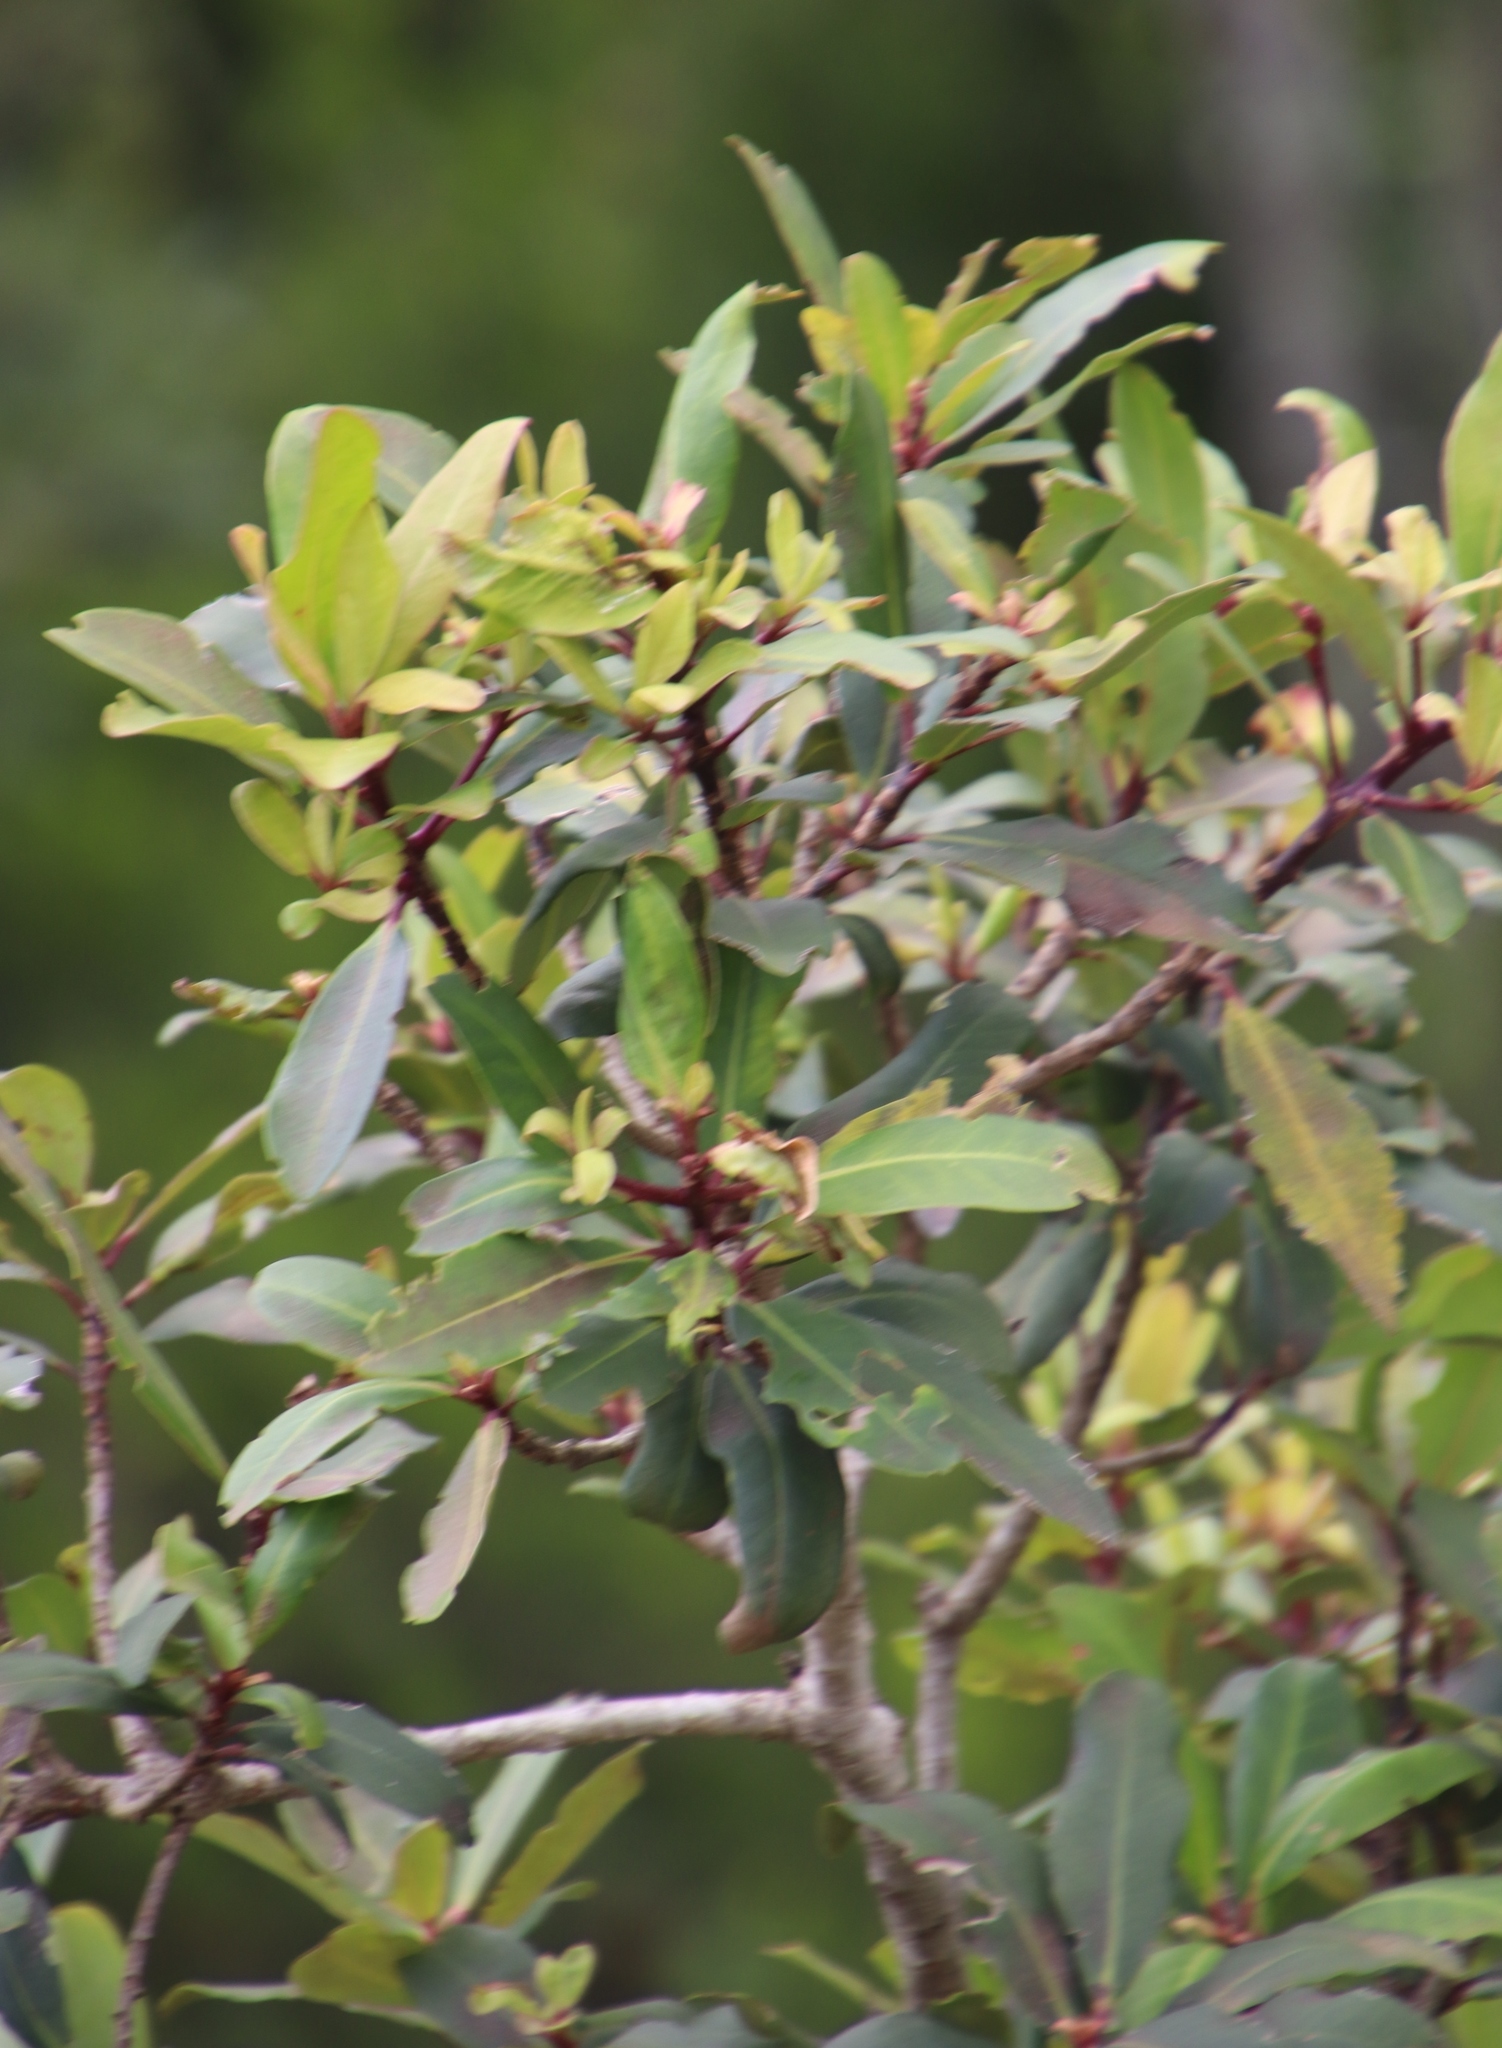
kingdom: Plantae
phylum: Tracheophyta
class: Magnoliopsida
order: Ericales
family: Primulaceae
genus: Myrsine
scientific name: Myrsine melanophloeos
